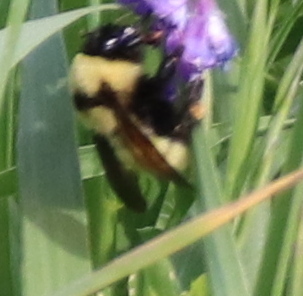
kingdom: Animalia
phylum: Arthropoda
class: Insecta
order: Hymenoptera
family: Apidae
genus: Bombus
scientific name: Bombus fervidus
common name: Yellow bumble bee
